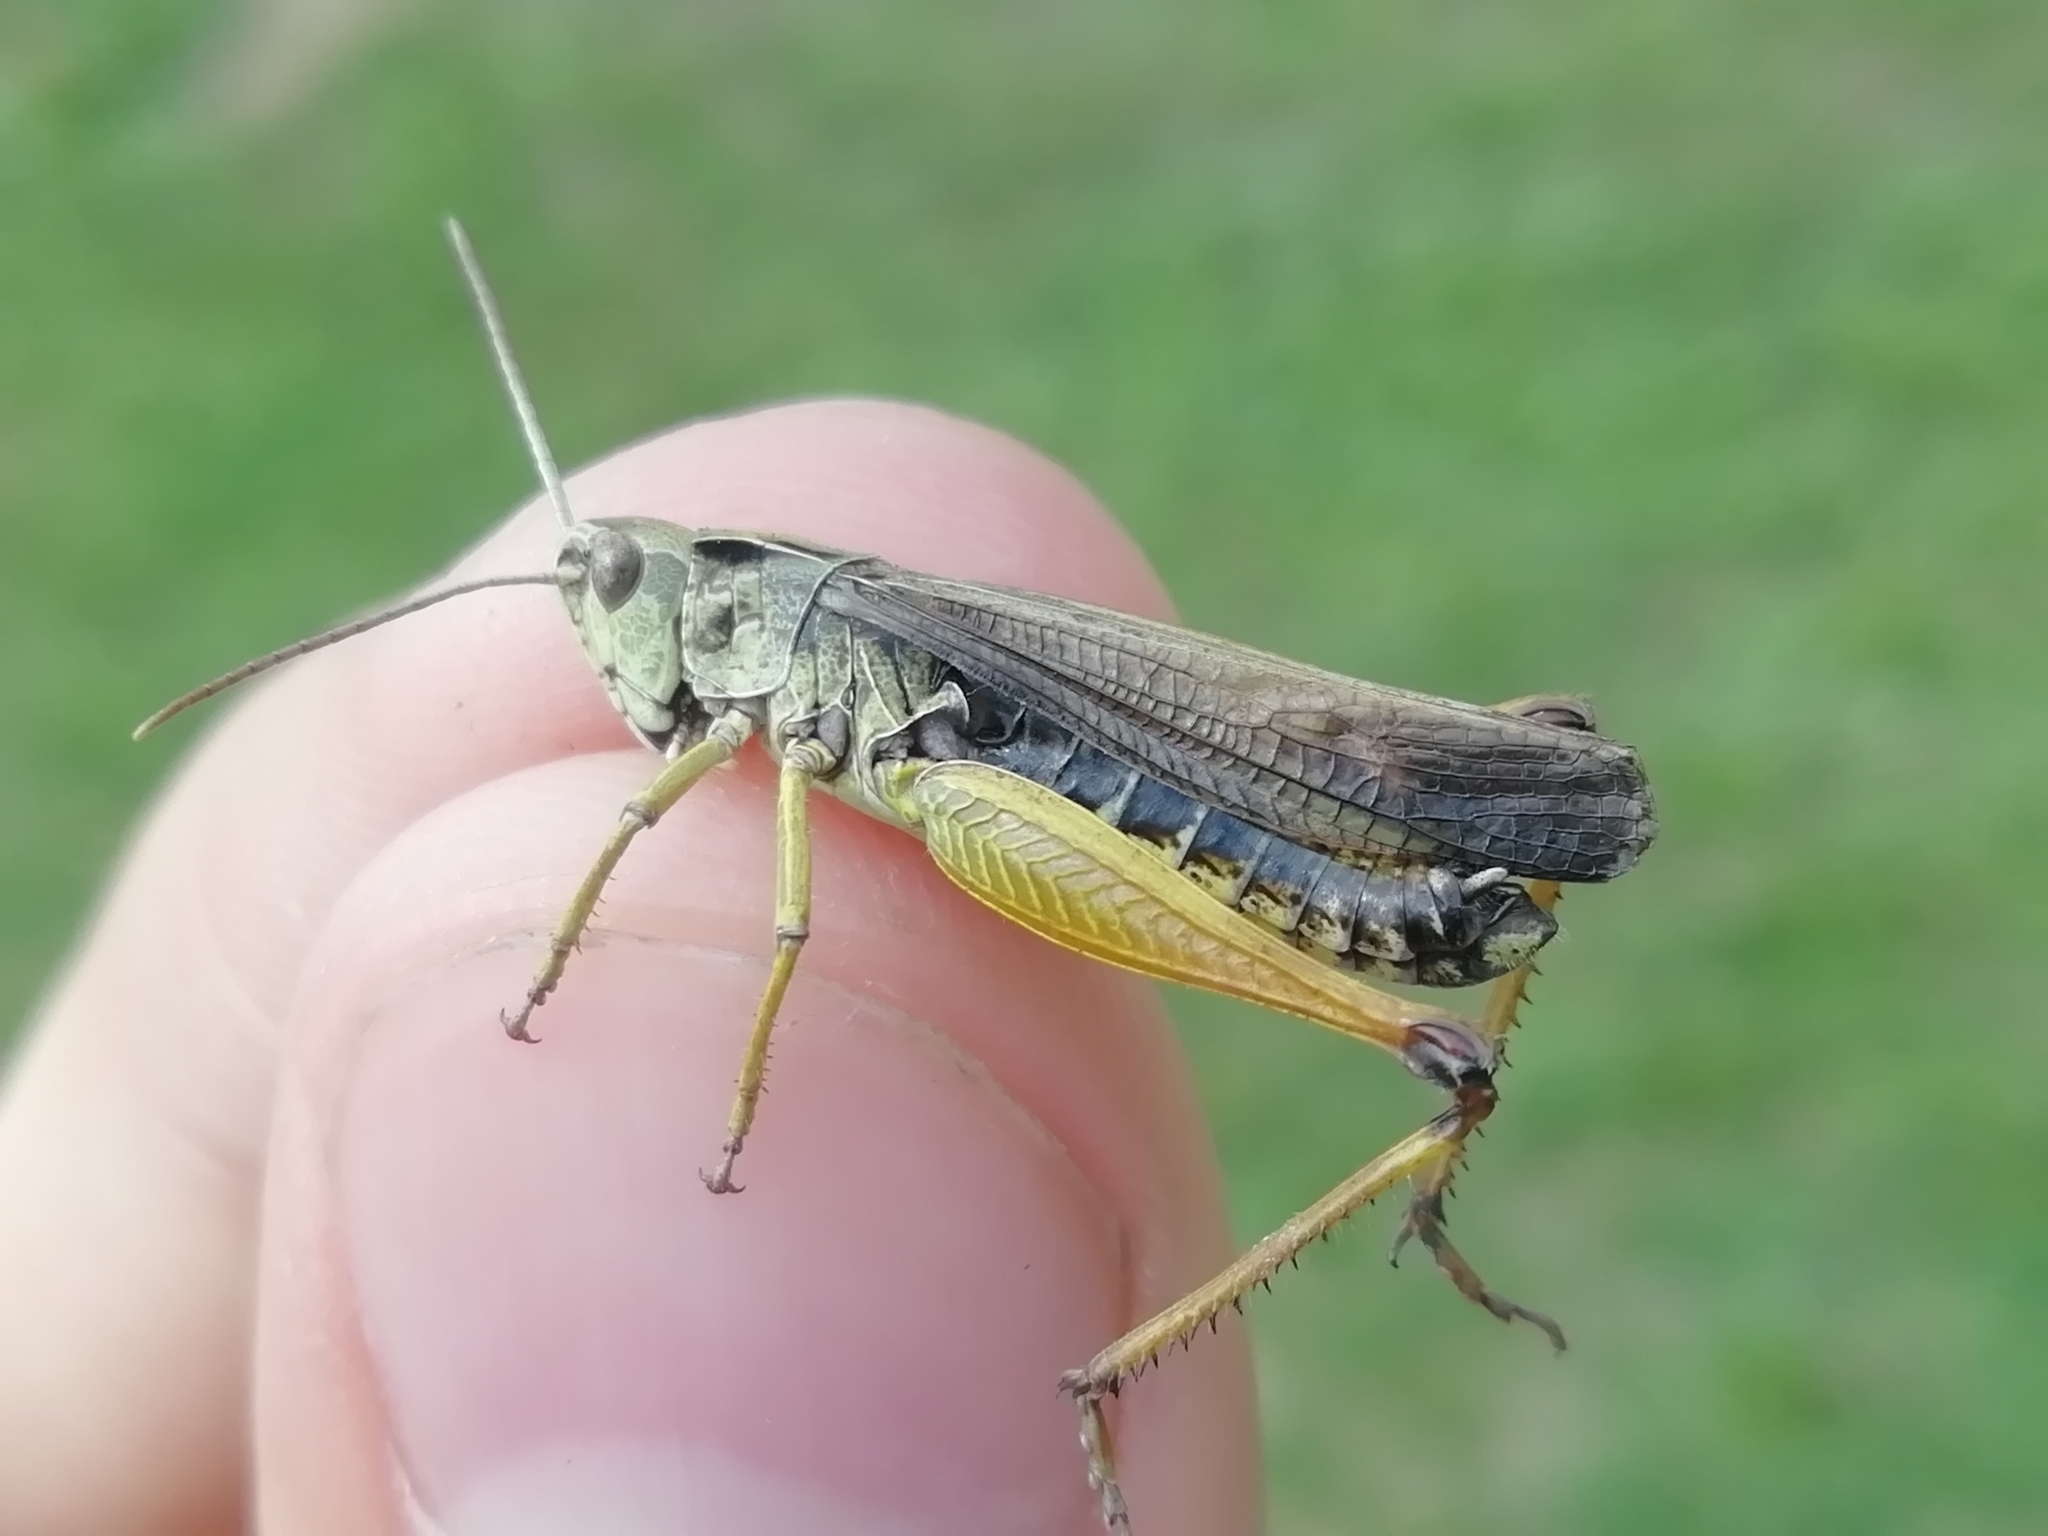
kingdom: Animalia
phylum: Arthropoda
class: Insecta
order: Orthoptera
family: Acrididae
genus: Omocestus
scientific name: Omocestus viridulus
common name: Common green grasshopper
